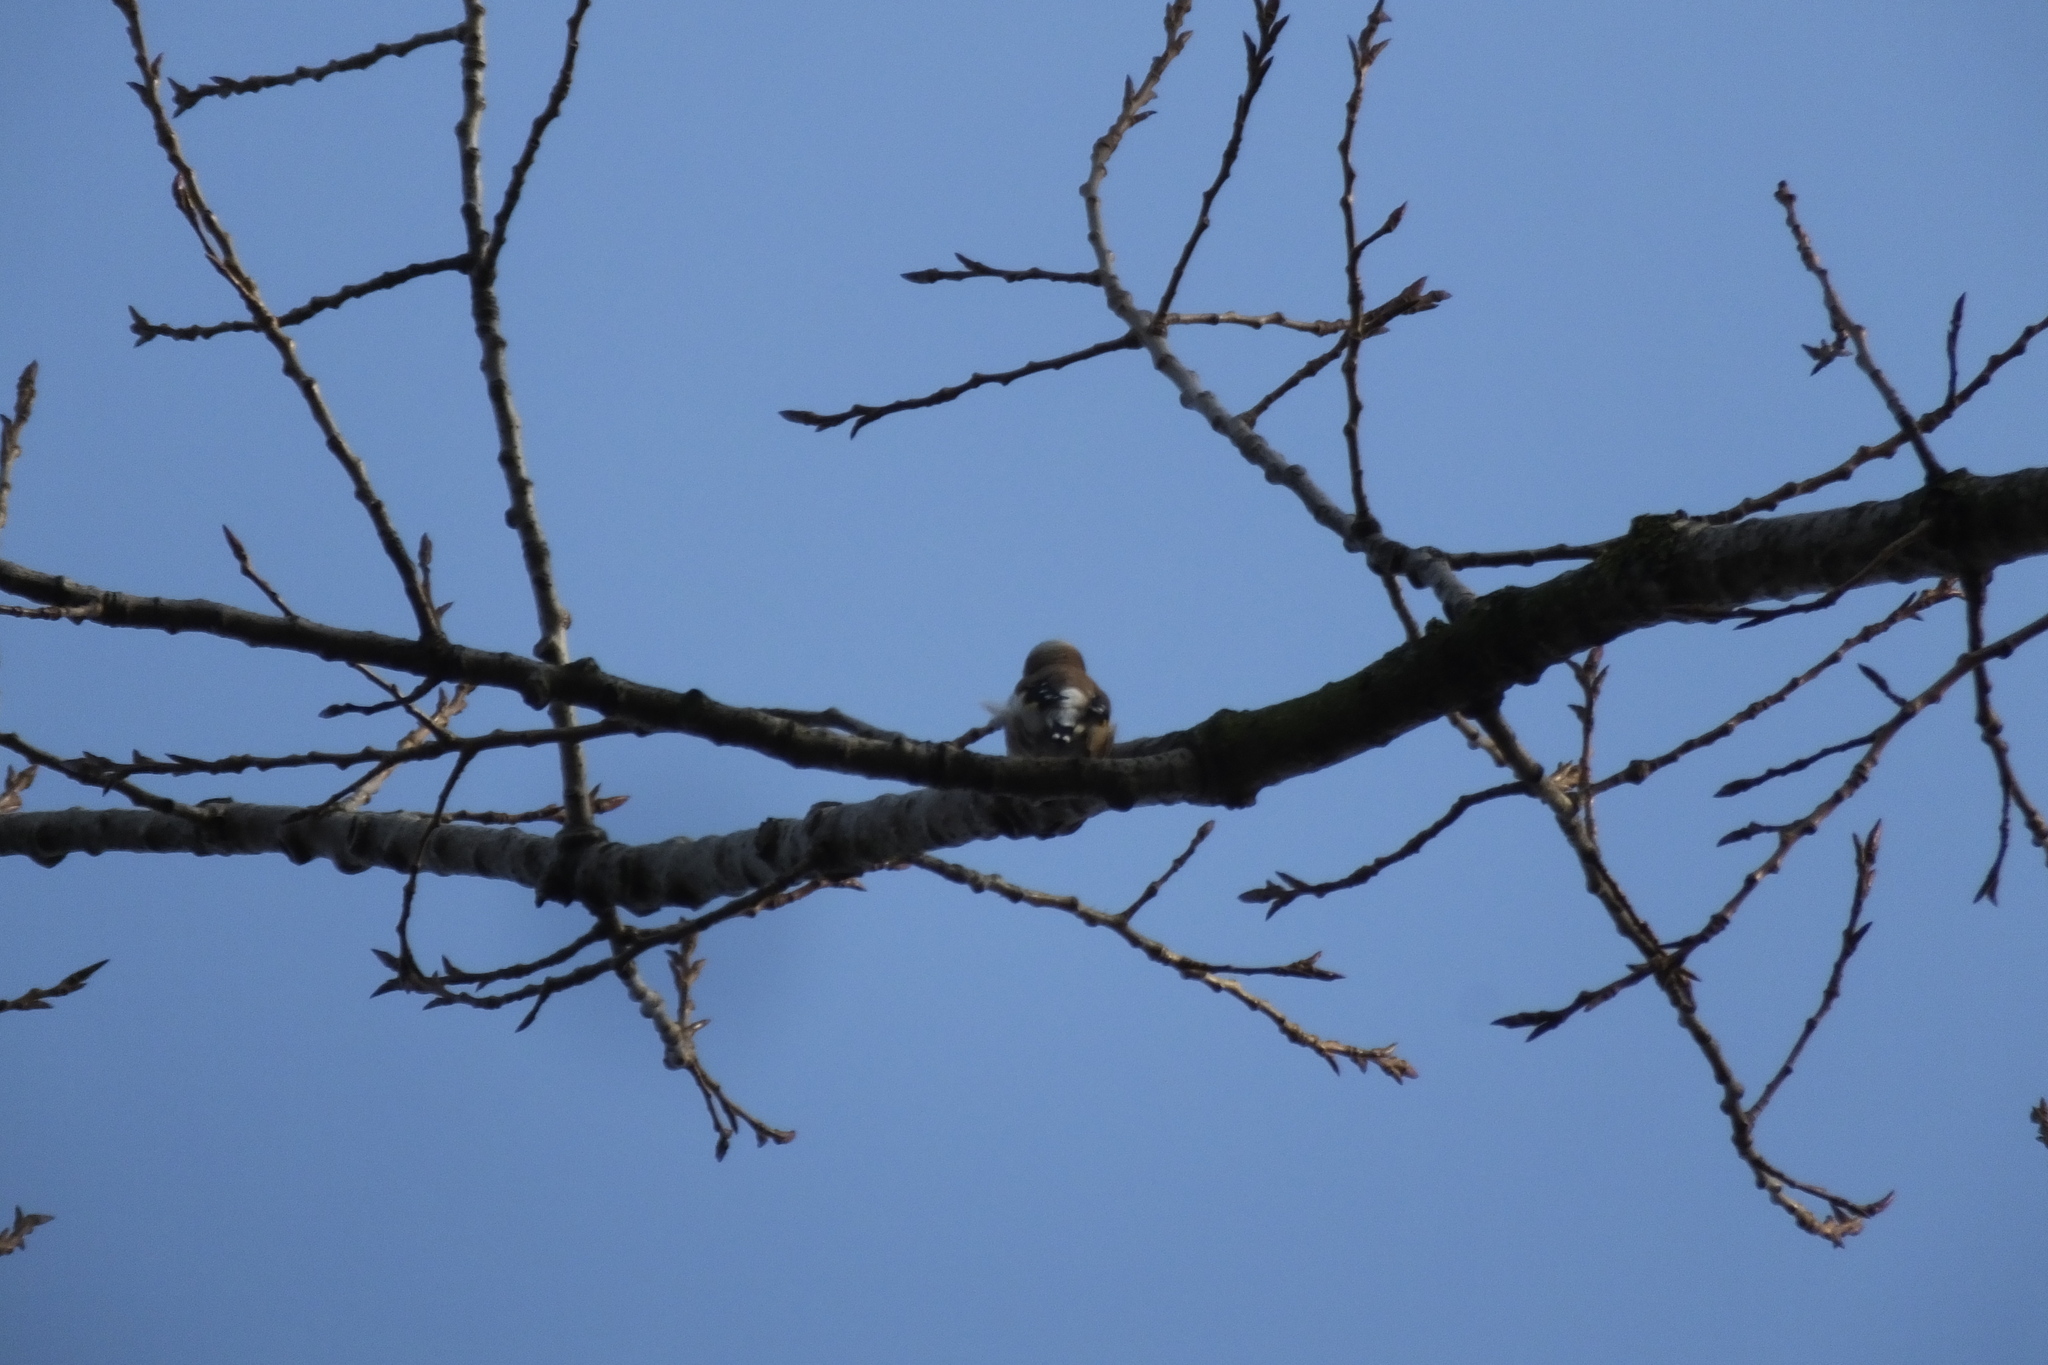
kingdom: Animalia
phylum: Chordata
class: Aves
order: Passeriformes
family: Fringillidae
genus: Carduelis
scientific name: Carduelis carduelis
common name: European goldfinch
